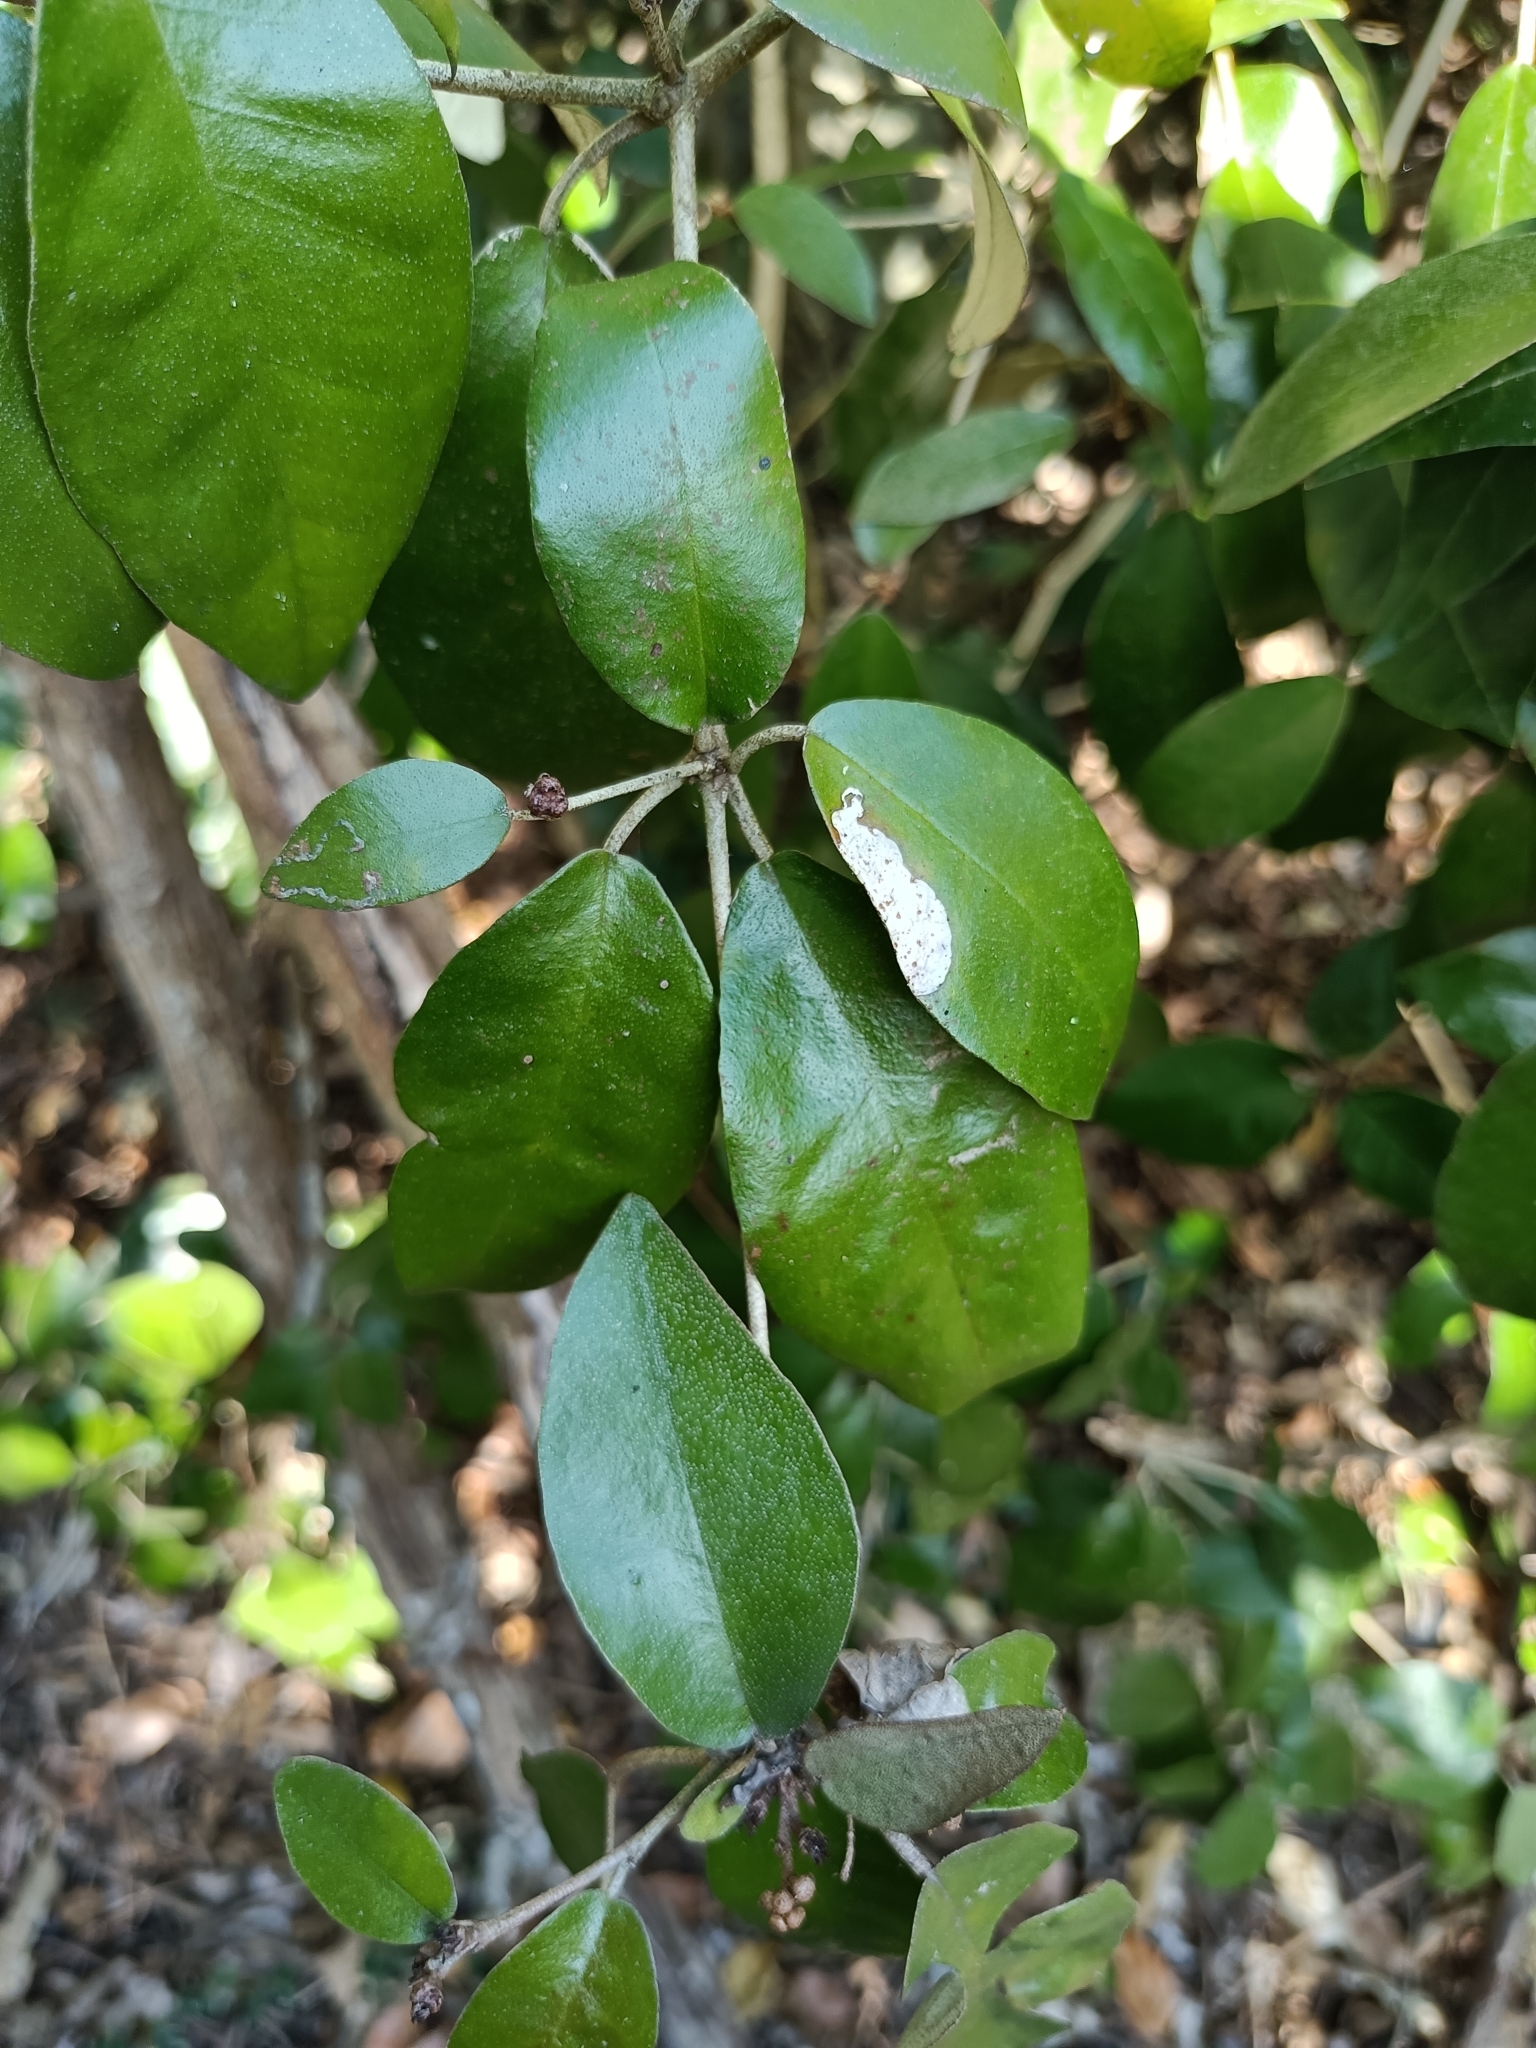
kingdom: Plantae
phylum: Tracheophyta
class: Magnoliopsida
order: Malpighiales
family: Euphorbiaceae
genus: Croton
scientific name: Croton cascarilloides
